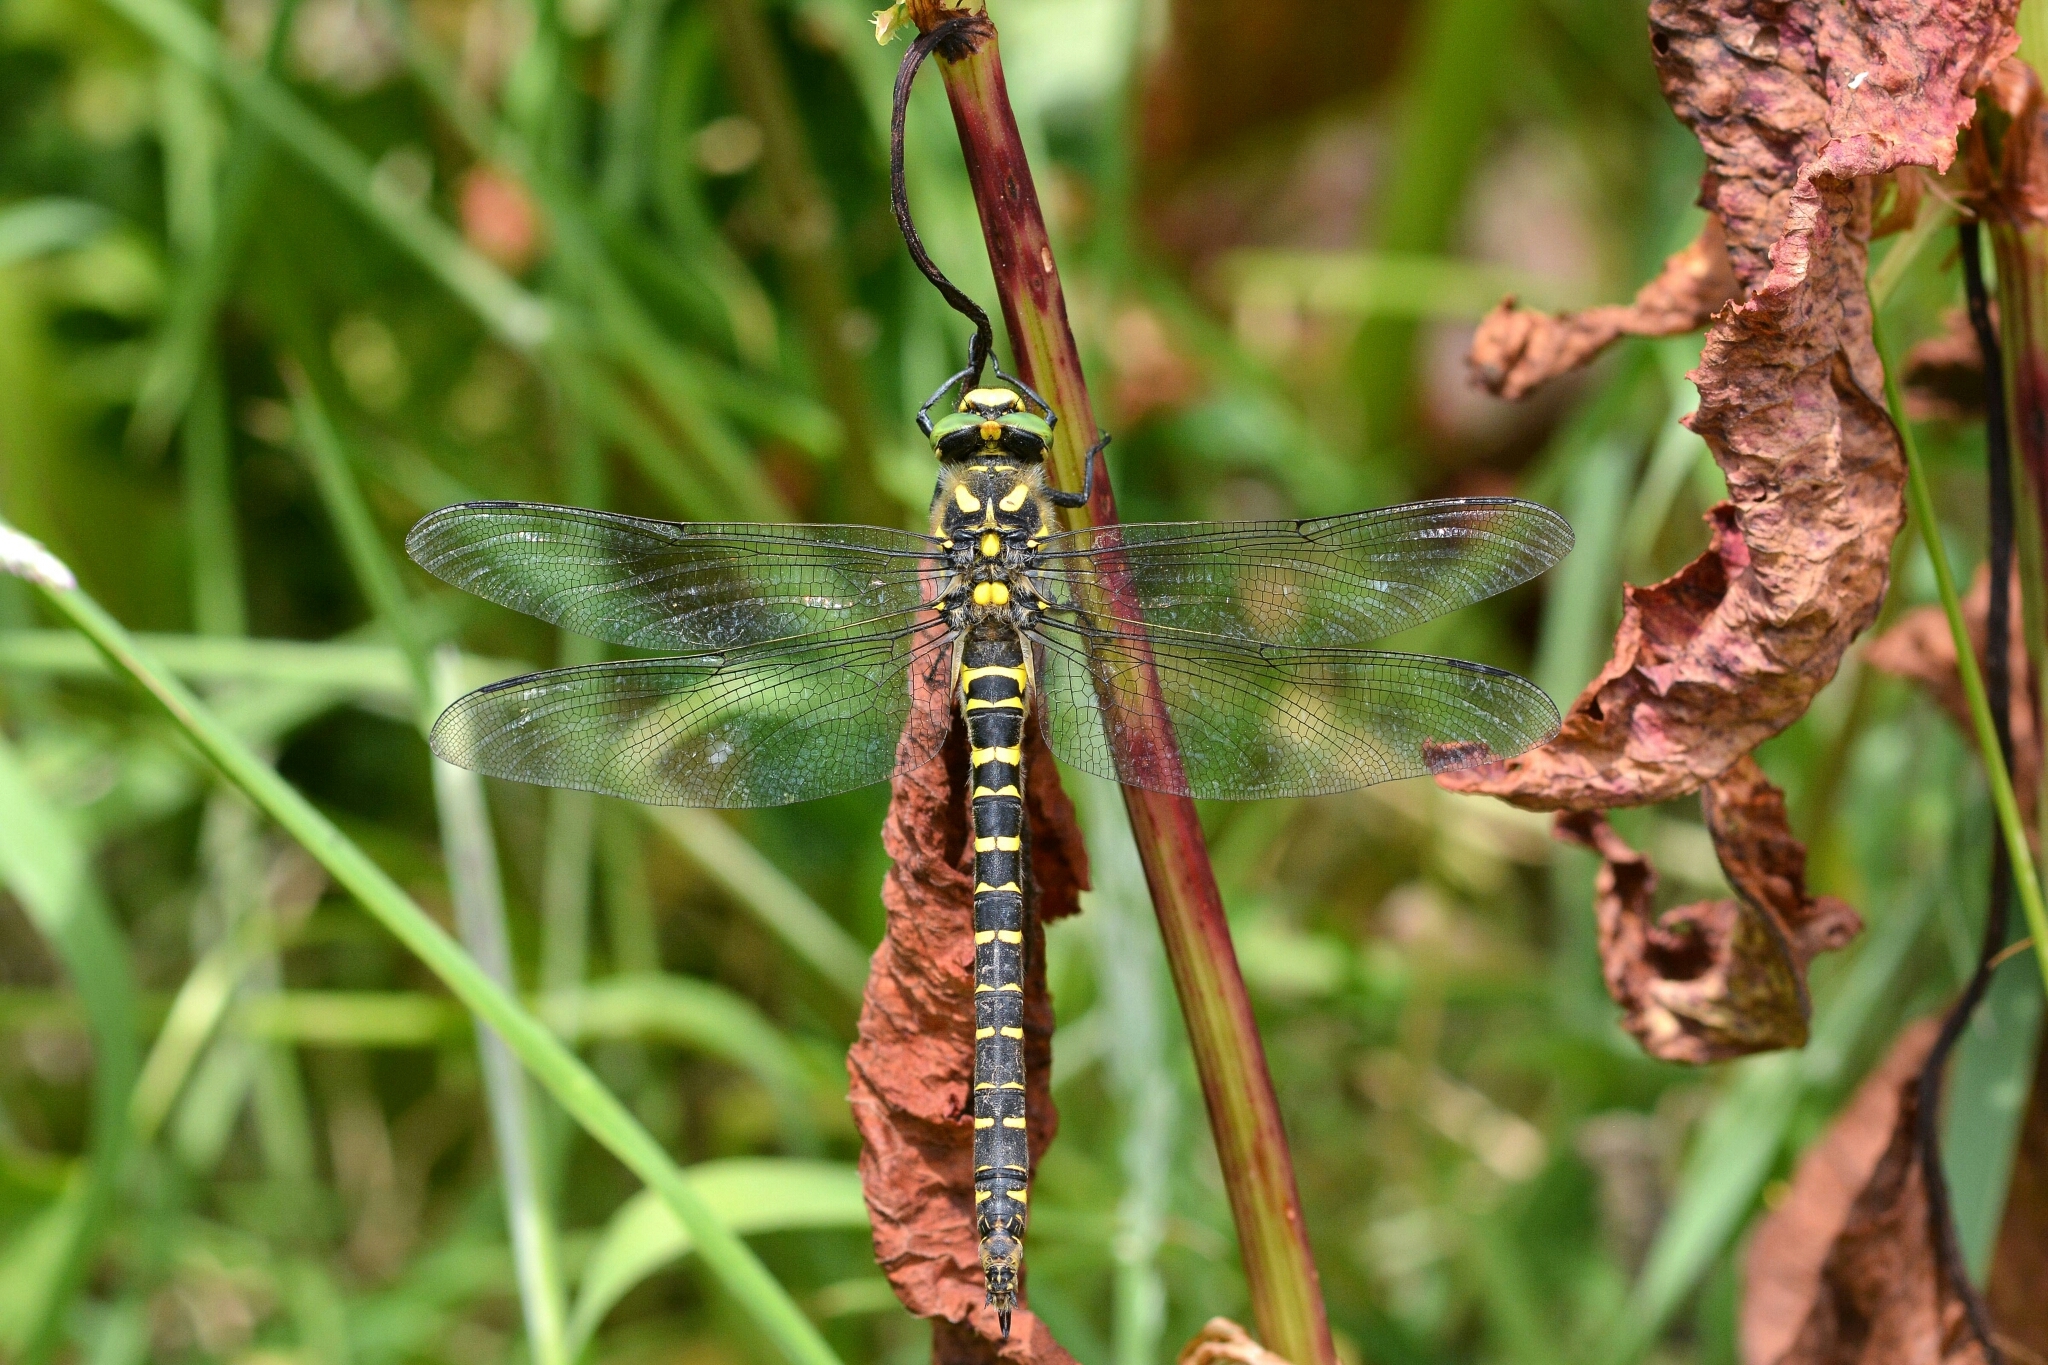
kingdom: Animalia
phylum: Arthropoda
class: Insecta
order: Odonata
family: Cordulegastridae
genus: Cordulegaster
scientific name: Cordulegaster boltonii
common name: Golden-ringed dragonfly
